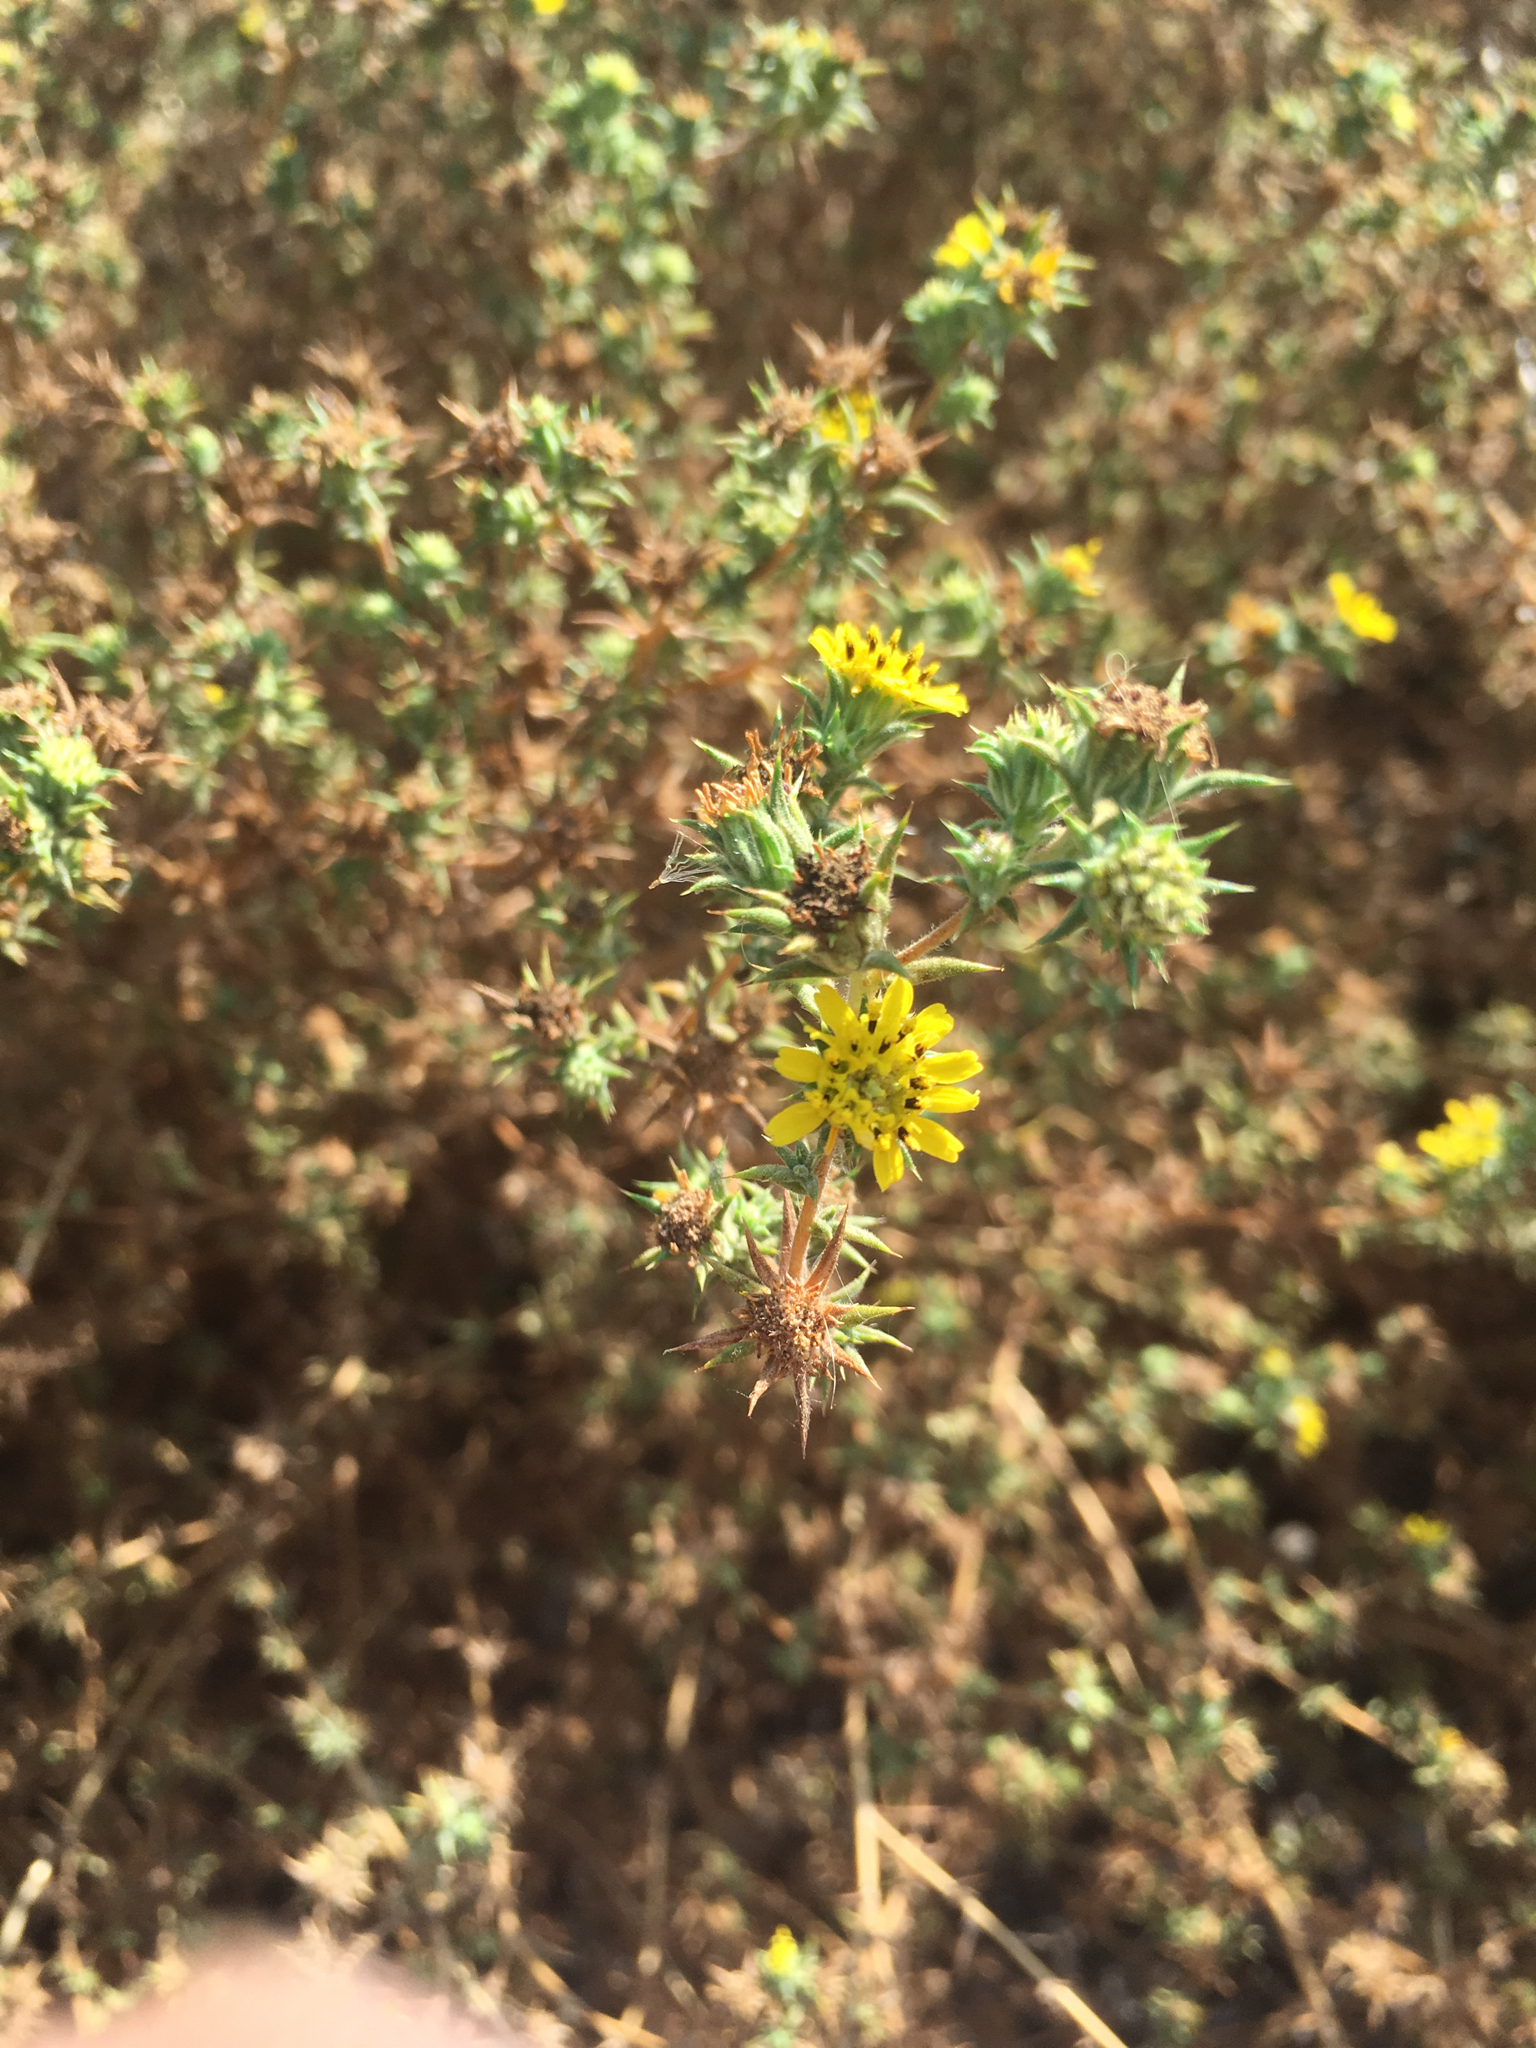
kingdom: Plantae
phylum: Tracheophyta
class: Magnoliopsida
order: Asterales
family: Asteraceae
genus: Centromadia
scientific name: Centromadia parryi
